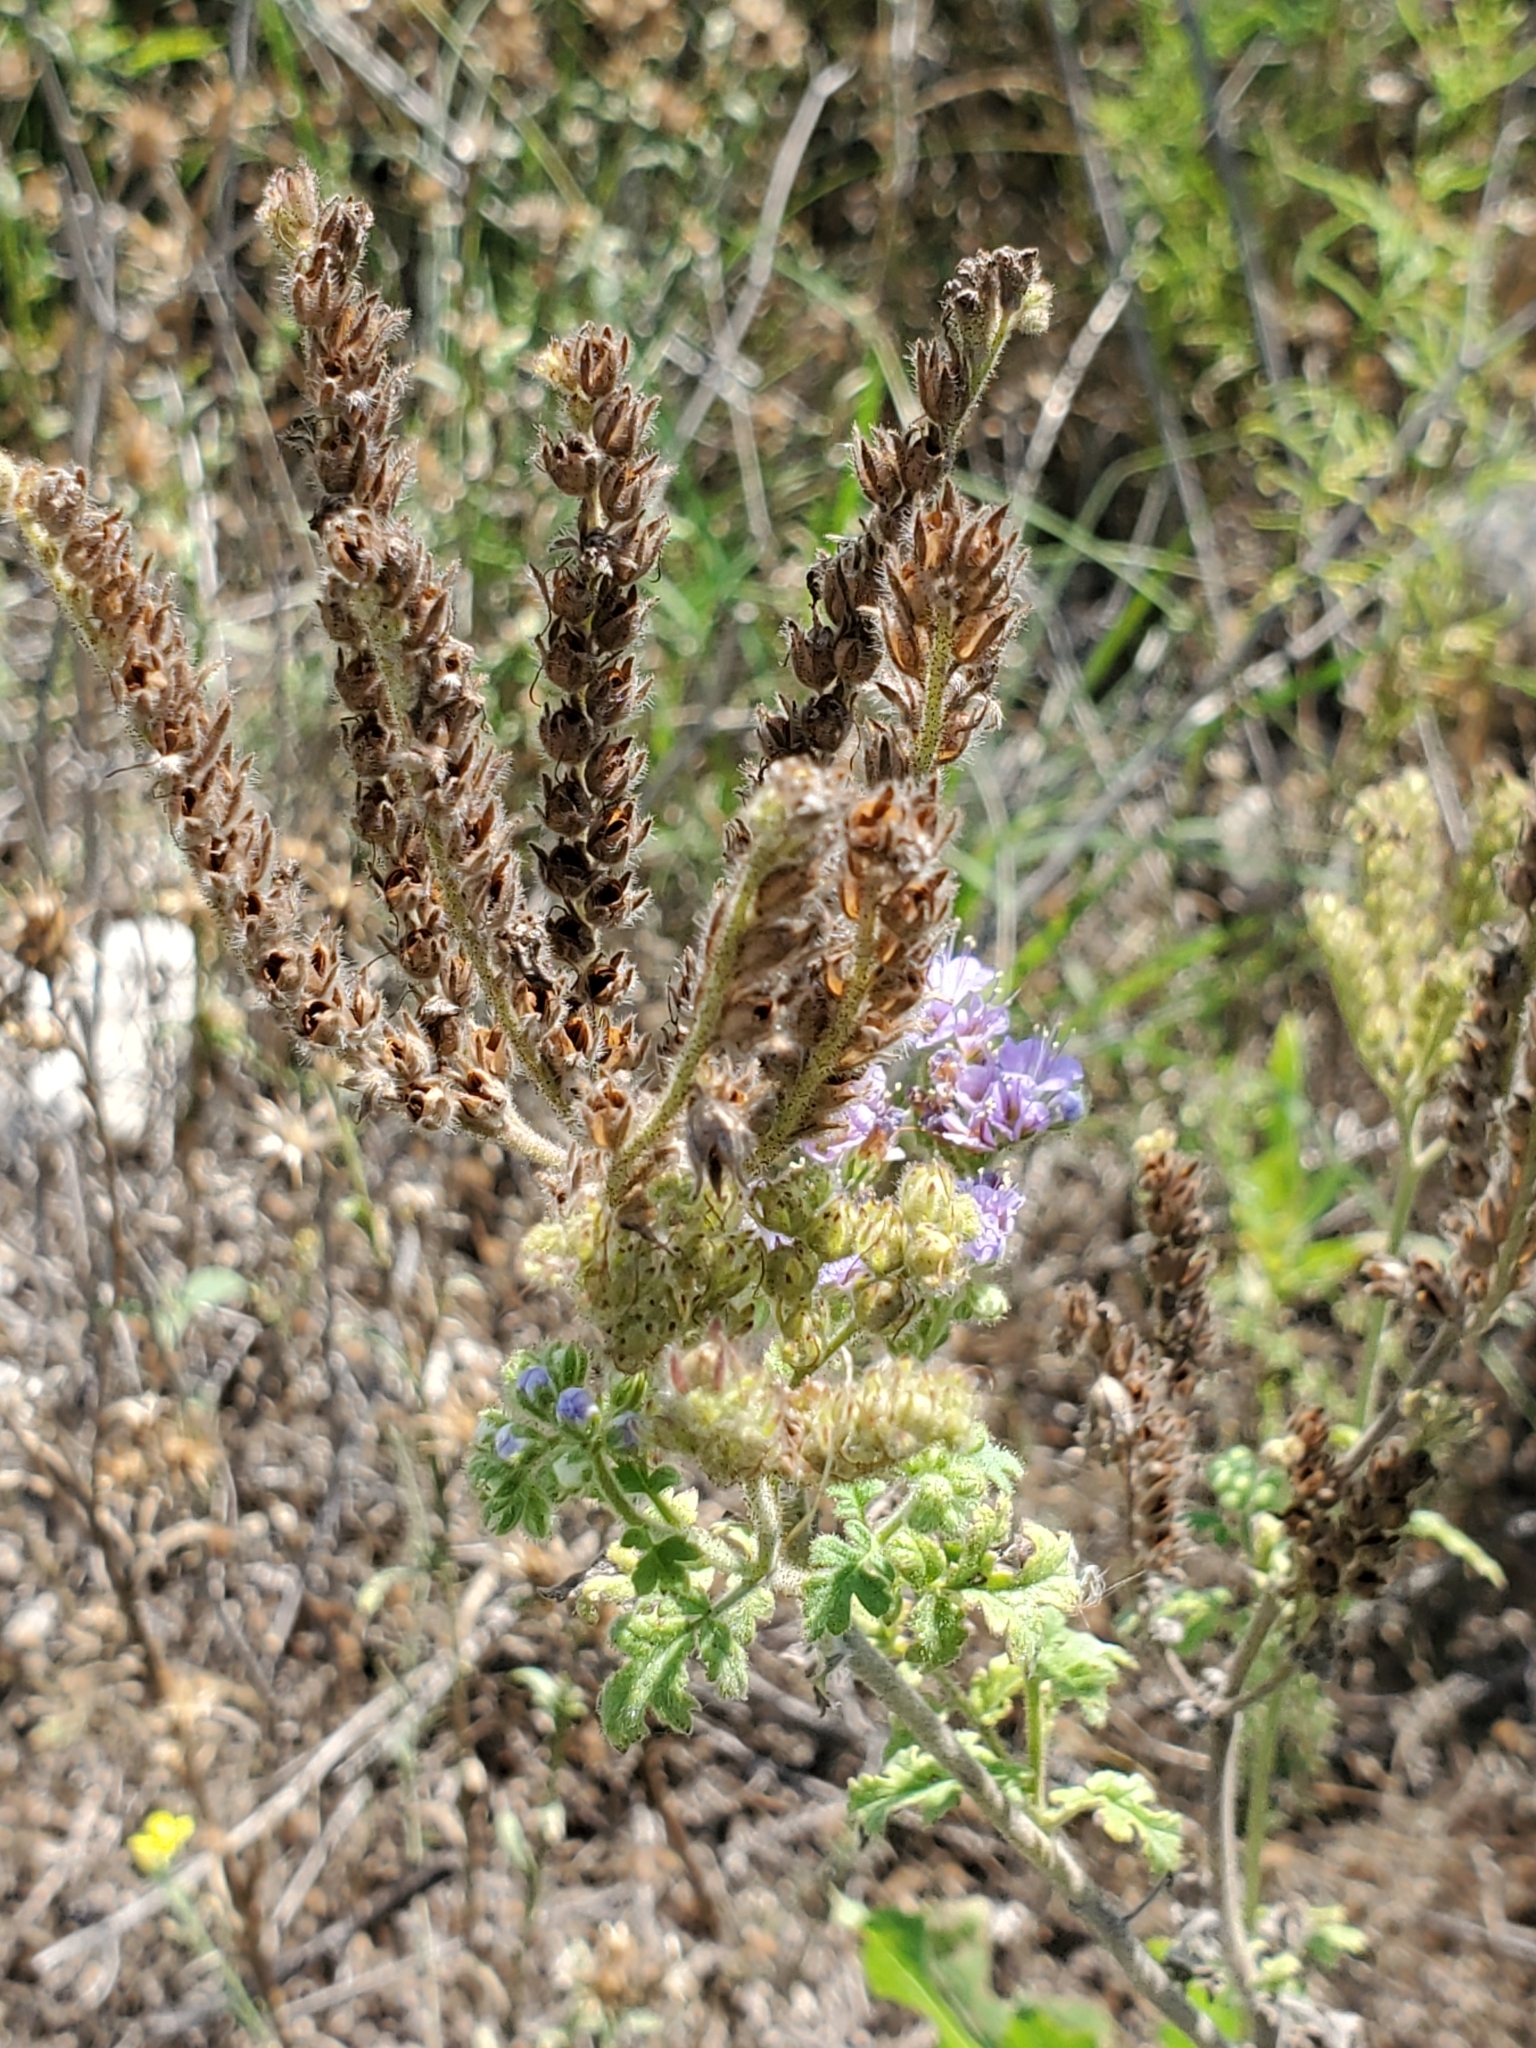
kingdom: Plantae
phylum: Tracheophyta
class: Magnoliopsida
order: Boraginales
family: Hydrophyllaceae
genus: Phacelia
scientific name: Phacelia congesta
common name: Blue curls
